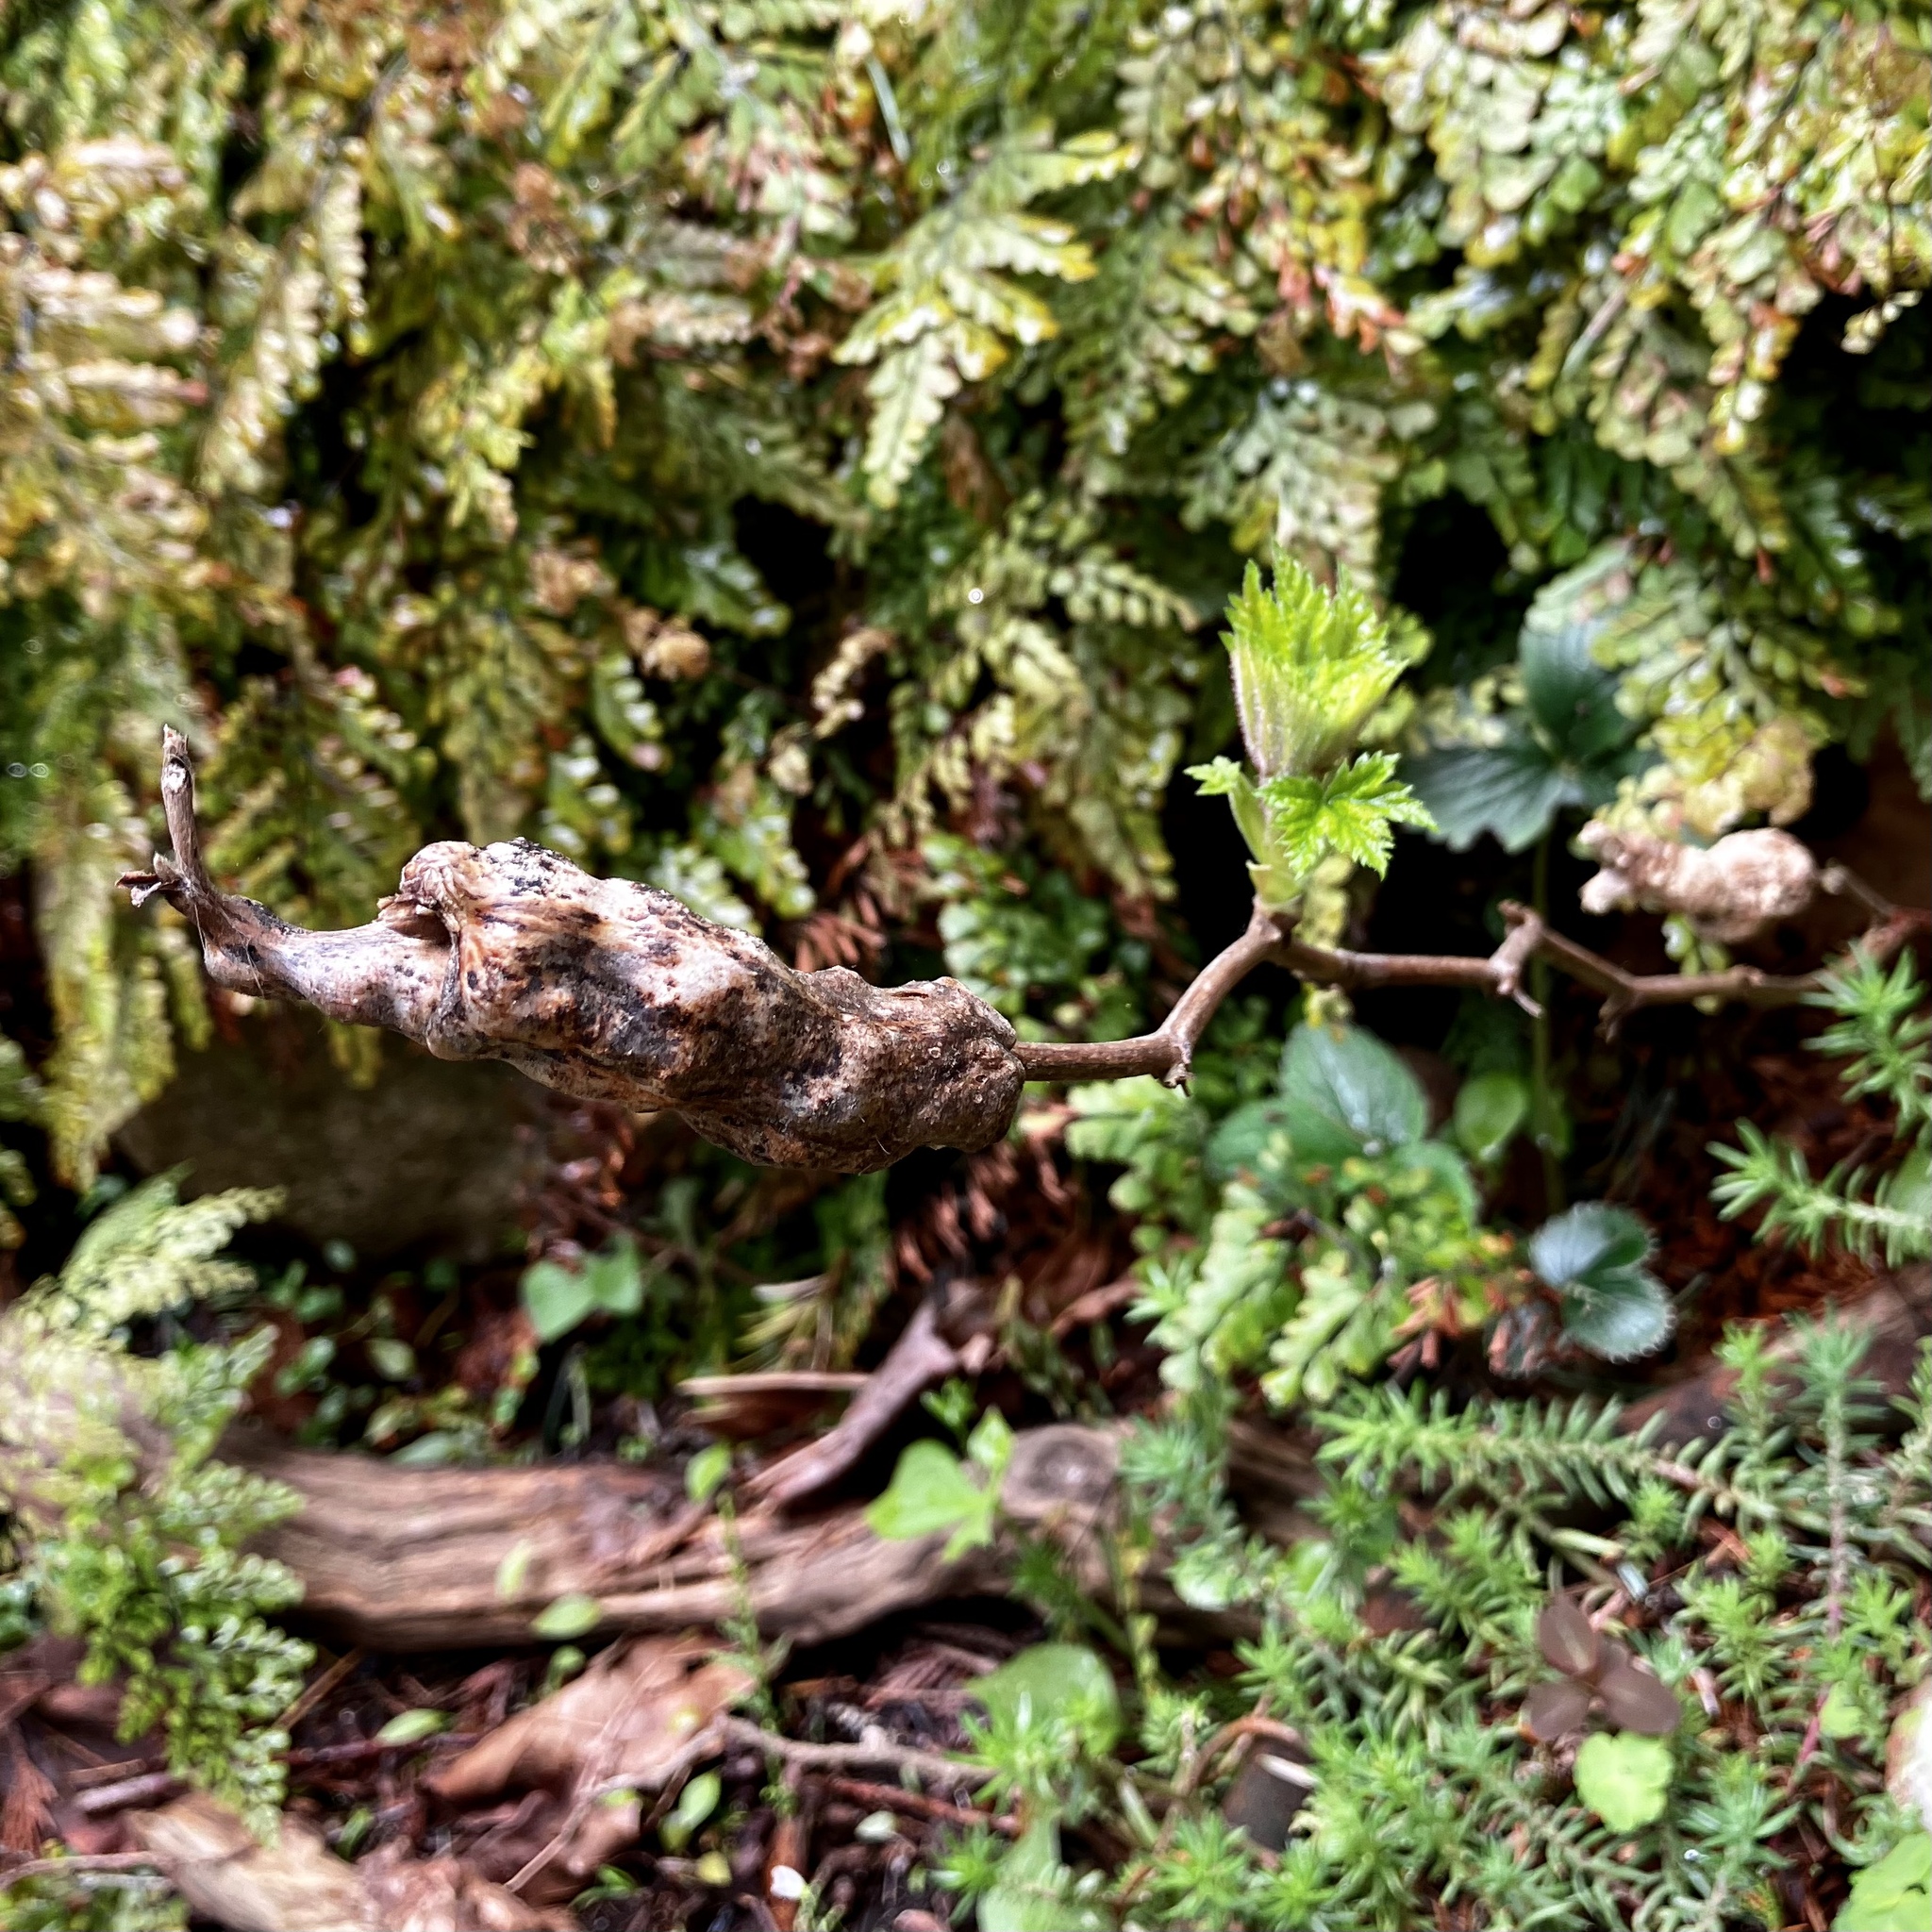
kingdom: Animalia
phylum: Arthropoda
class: Insecta
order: Hymenoptera
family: Cynipidae
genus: Diastrophus
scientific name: Diastrophus
